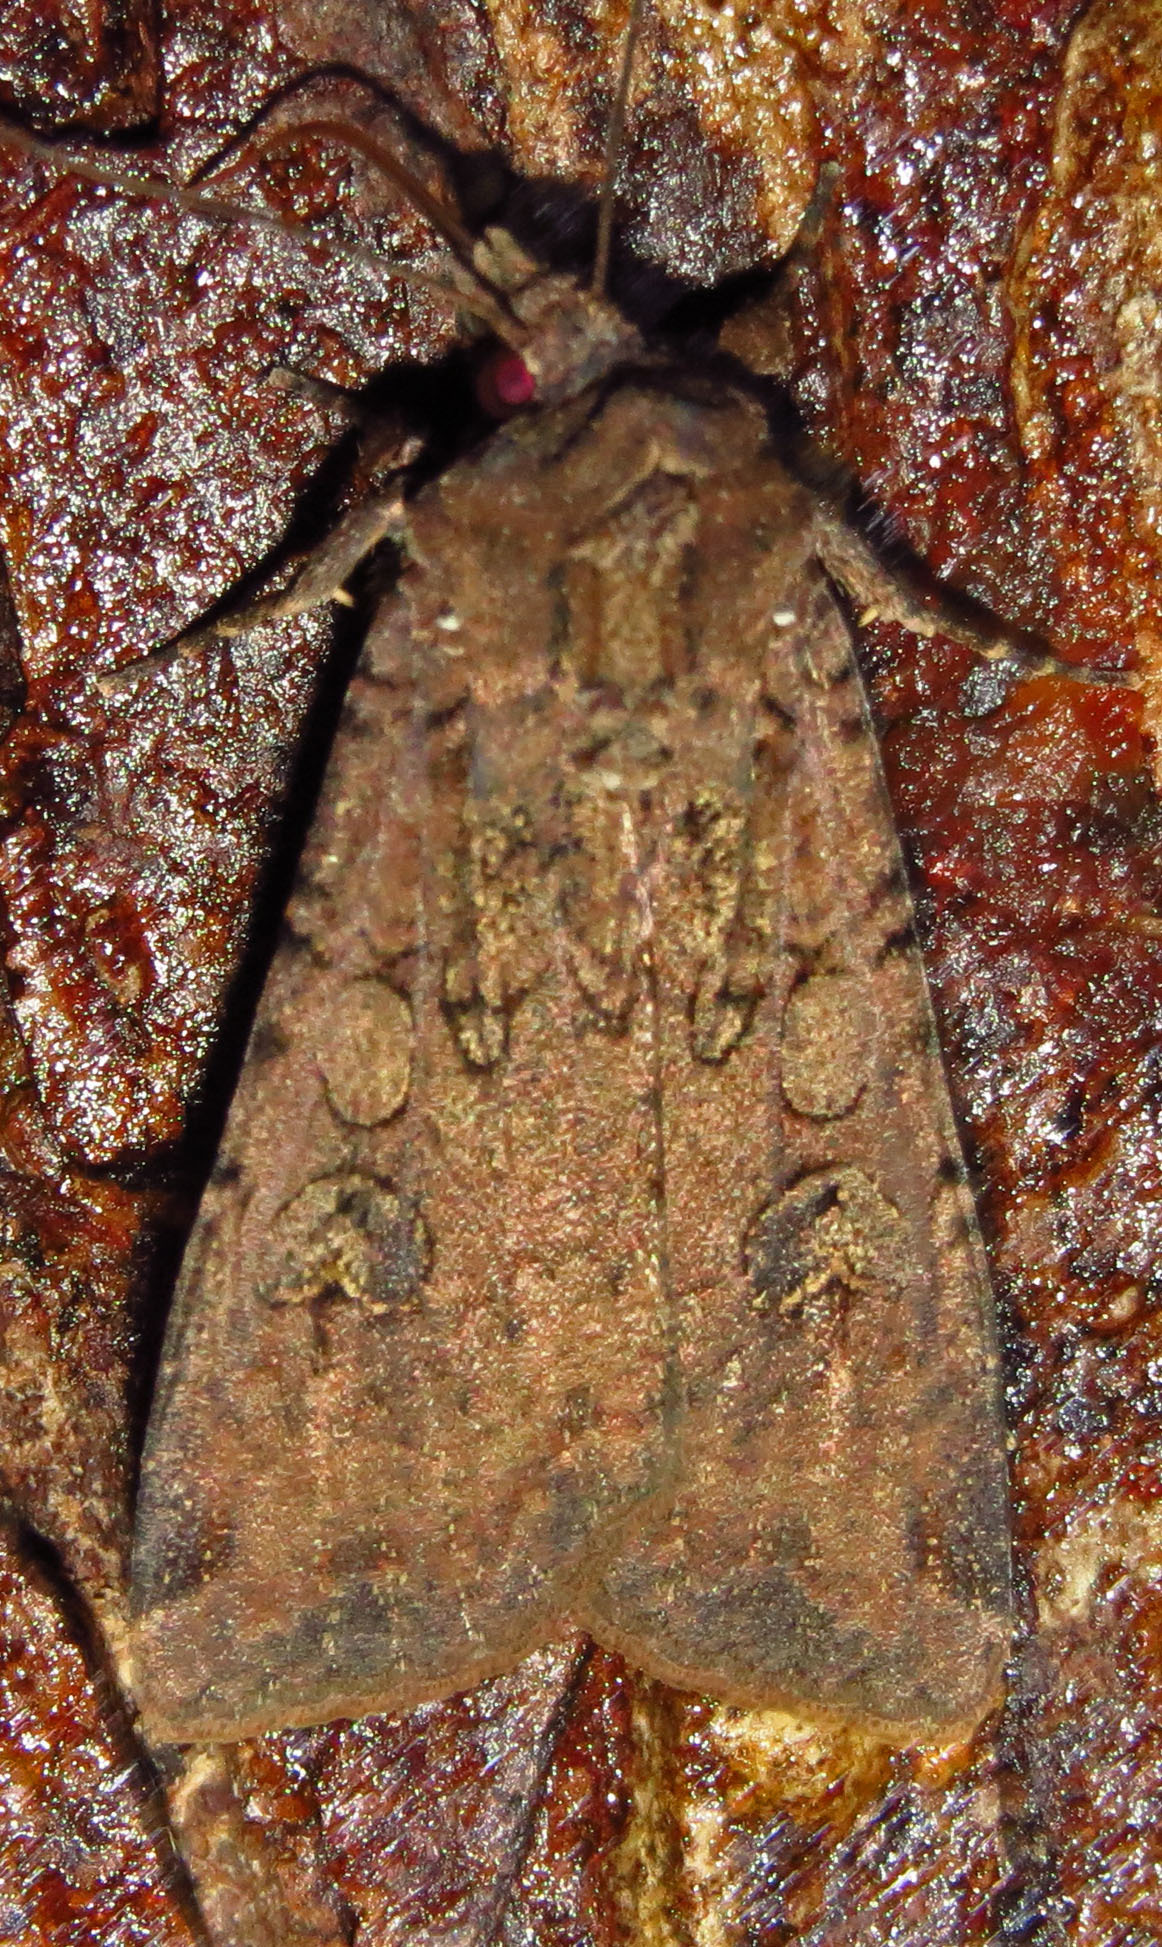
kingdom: Animalia
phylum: Arthropoda
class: Insecta
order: Lepidoptera
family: Noctuidae
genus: Peridroma
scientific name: Peridroma saucia
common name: Pearly underwing
